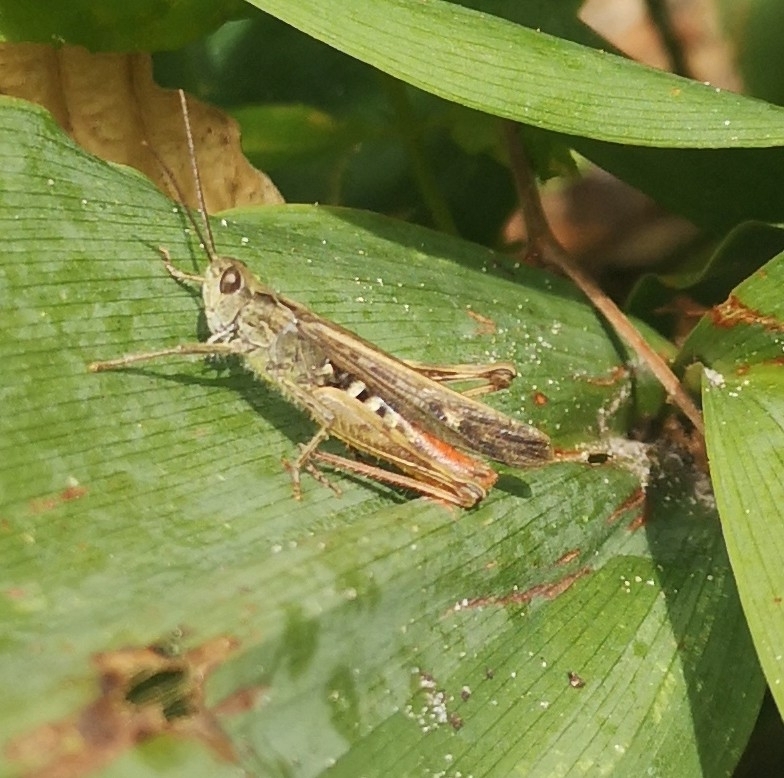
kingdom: Animalia
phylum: Arthropoda
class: Insecta
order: Orthoptera
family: Acrididae
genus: Chorthippus
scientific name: Chorthippus brunneus
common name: Field grasshopper
